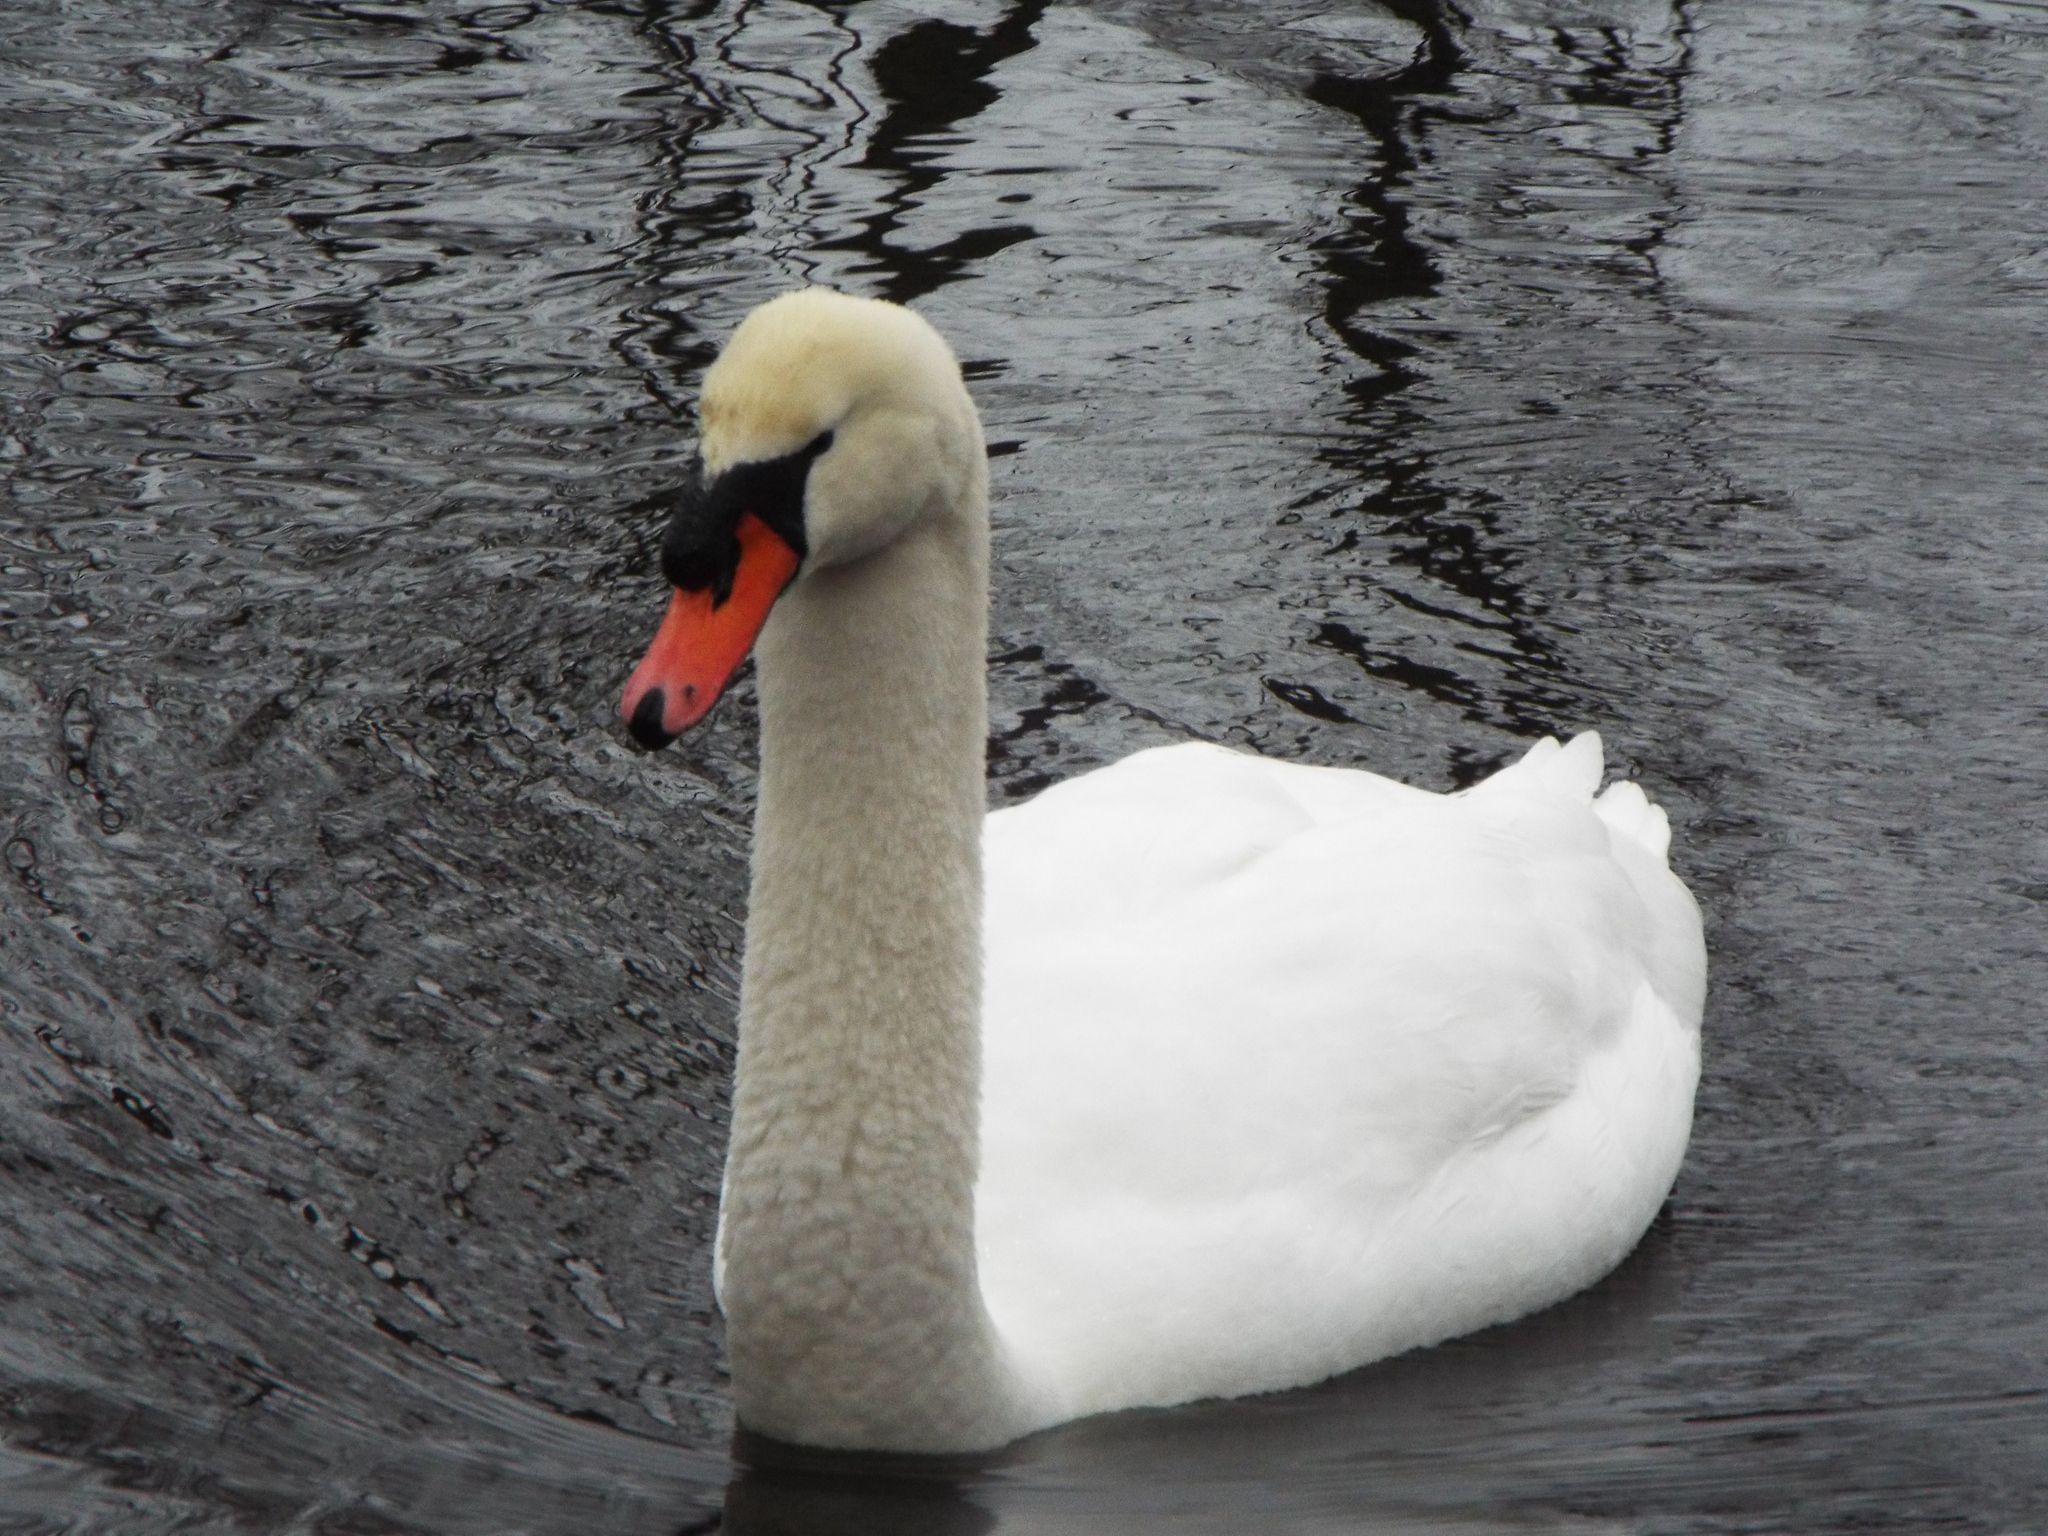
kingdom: Animalia
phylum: Chordata
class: Aves
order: Anseriformes
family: Anatidae
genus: Cygnus
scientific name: Cygnus olor
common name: Mute swan
